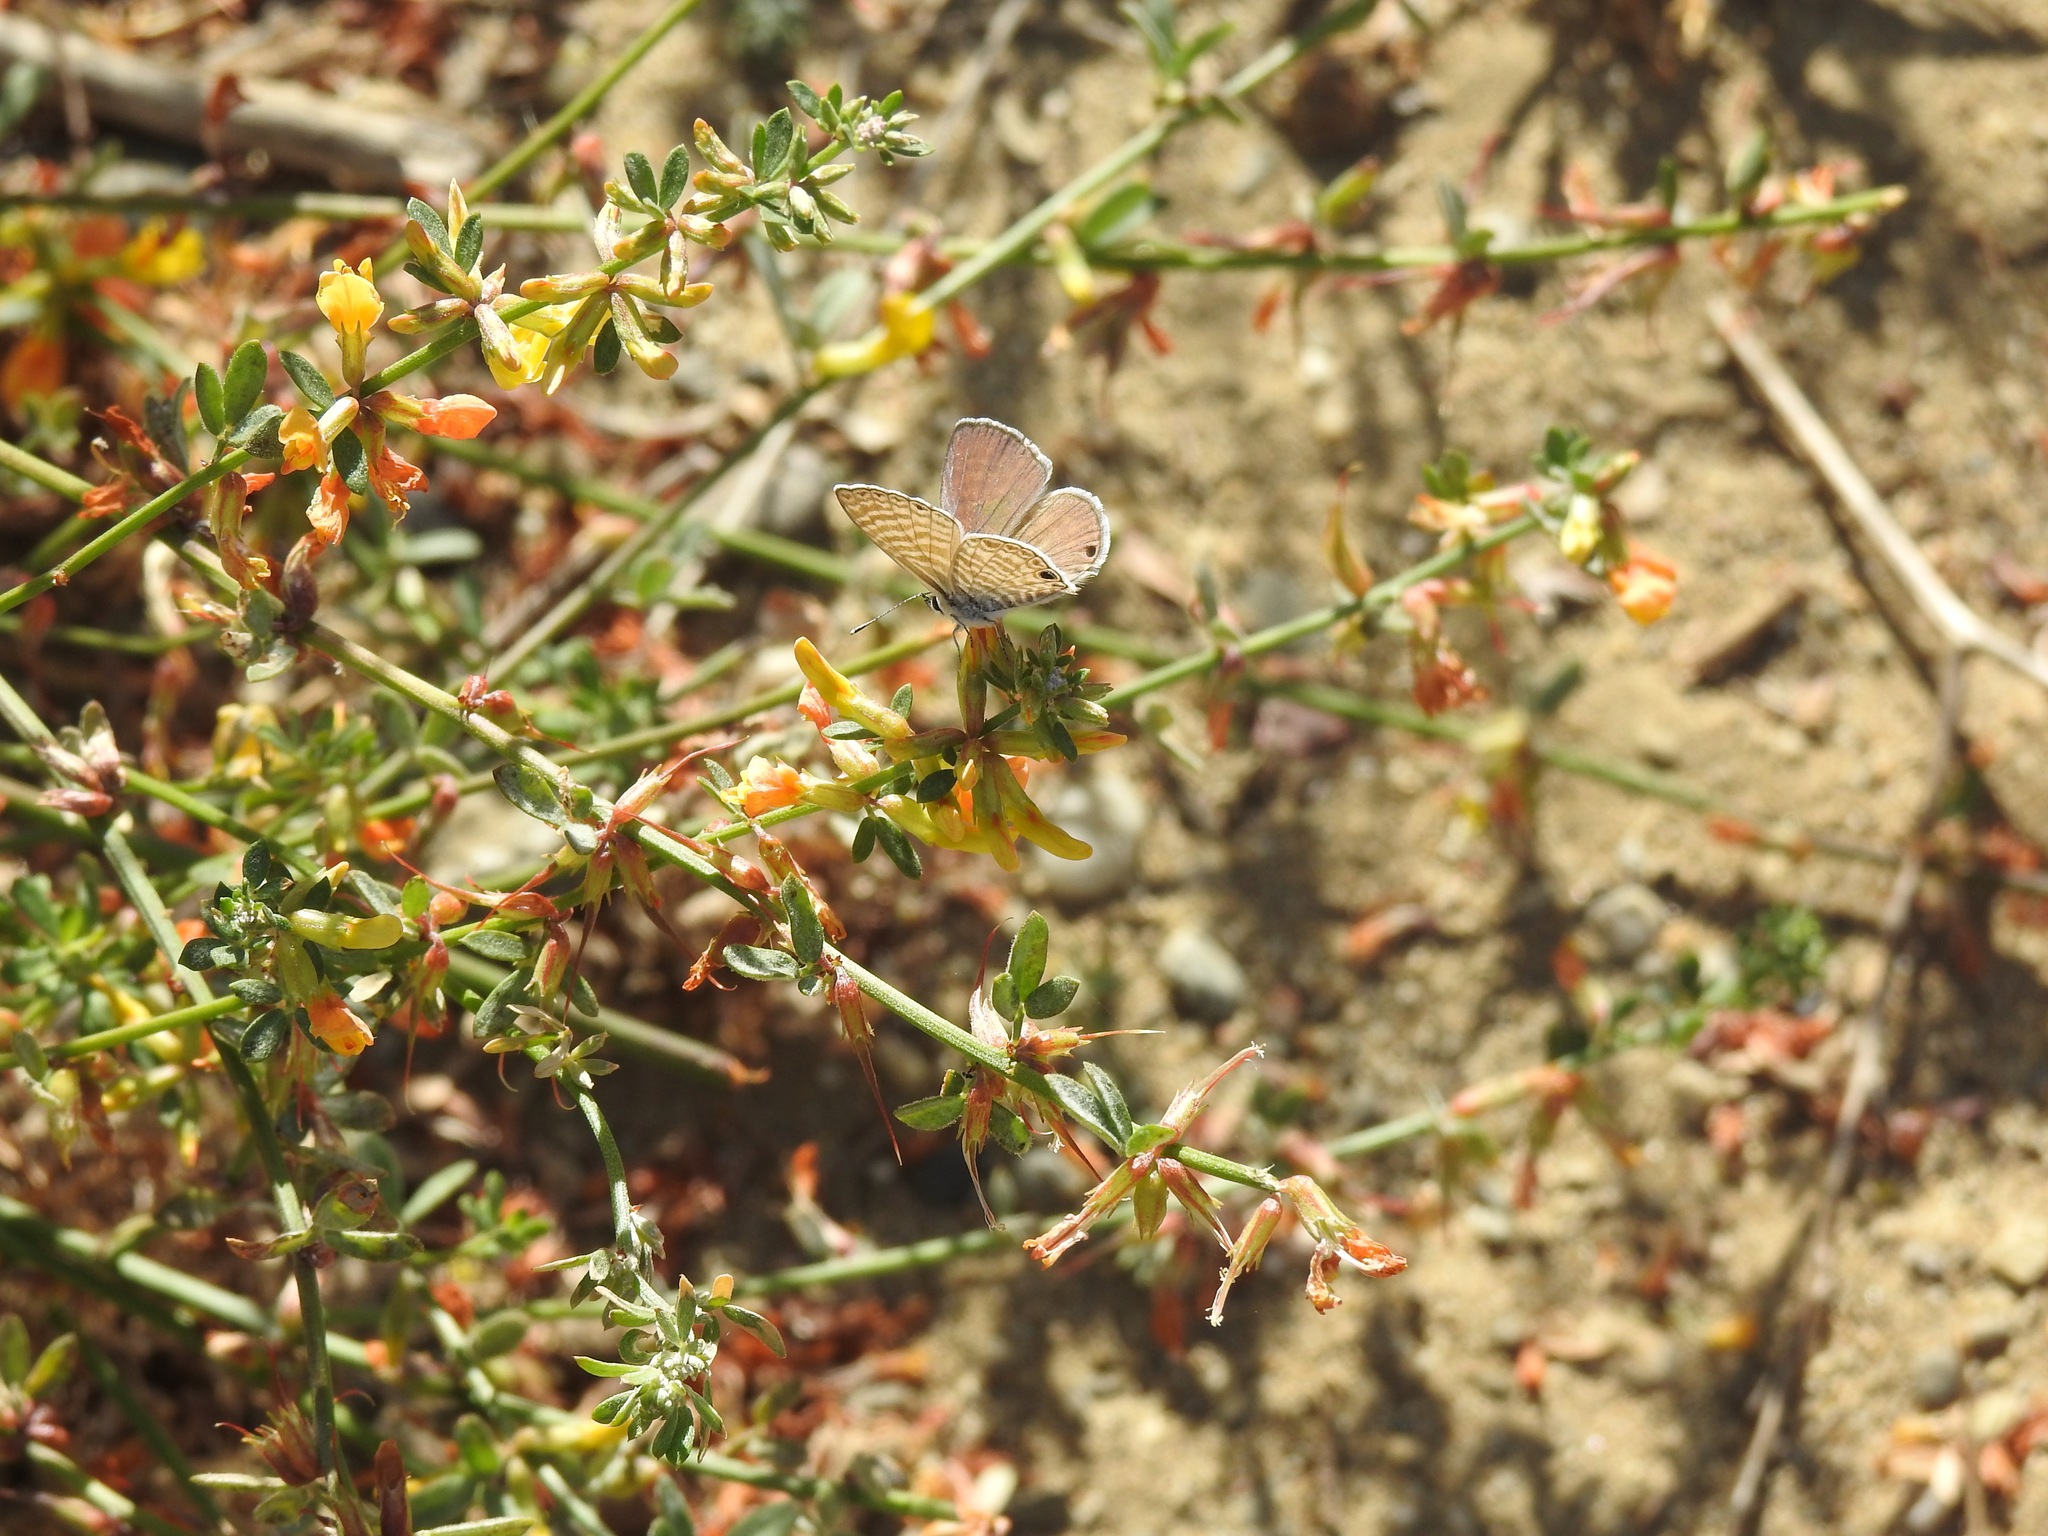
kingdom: Animalia
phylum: Arthropoda
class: Insecta
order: Lepidoptera
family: Lycaenidae
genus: Leptotes
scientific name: Leptotes marina
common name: Marine blue
